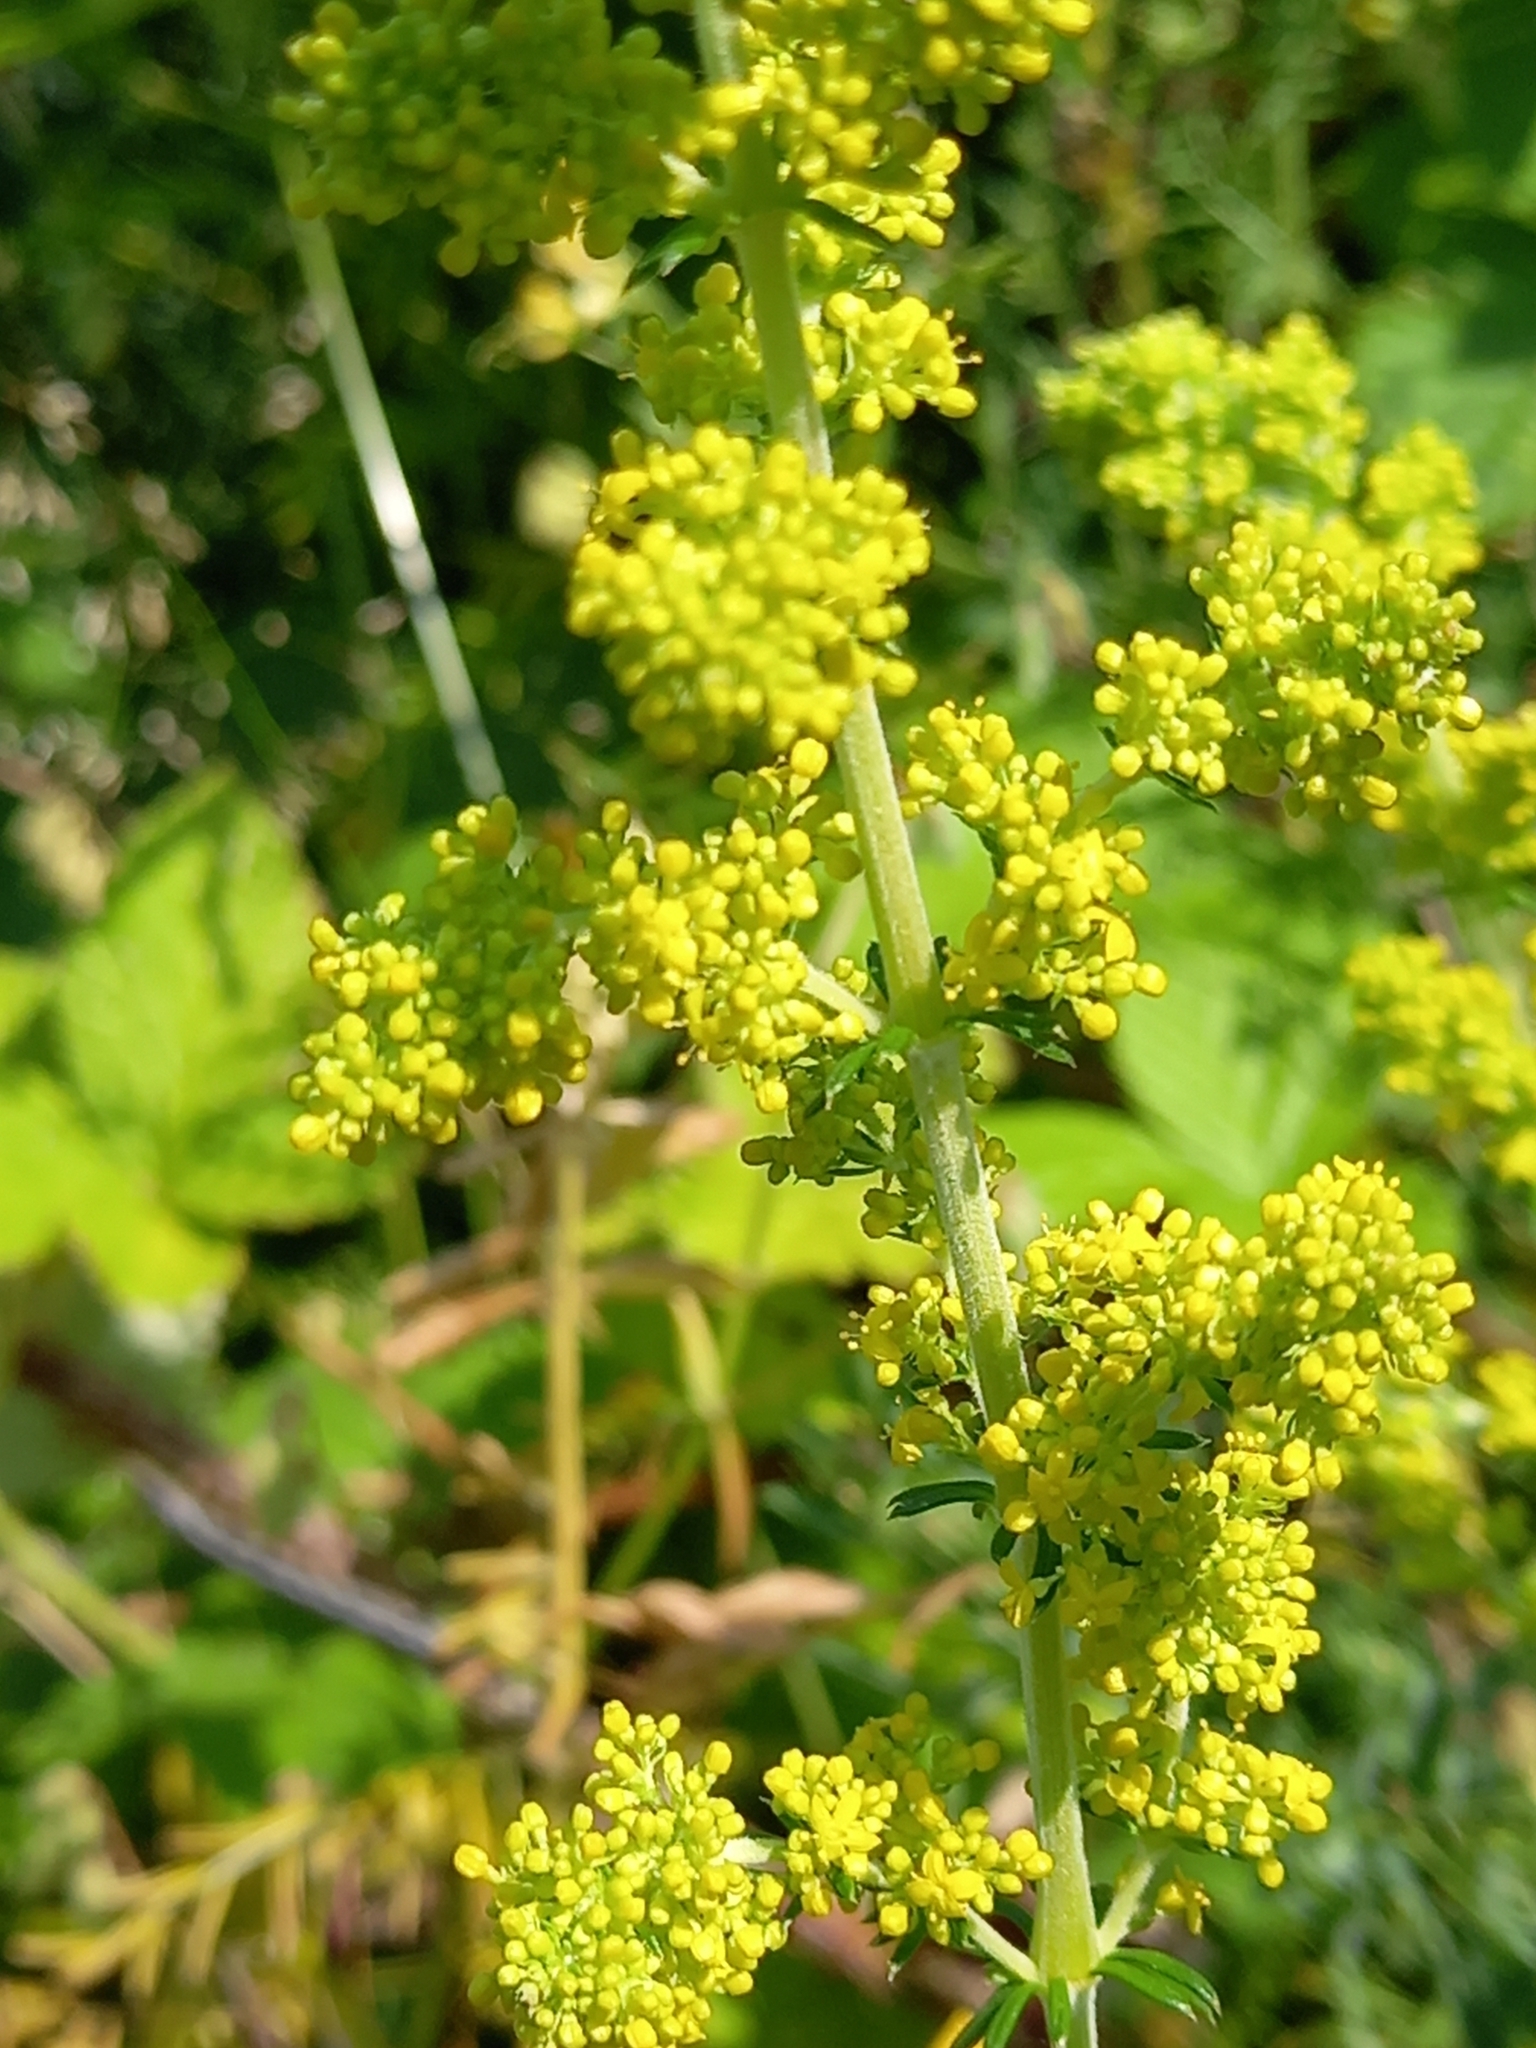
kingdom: Plantae
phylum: Tracheophyta
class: Magnoliopsida
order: Gentianales
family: Rubiaceae
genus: Galium
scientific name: Galium verum
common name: Lady's bedstraw
